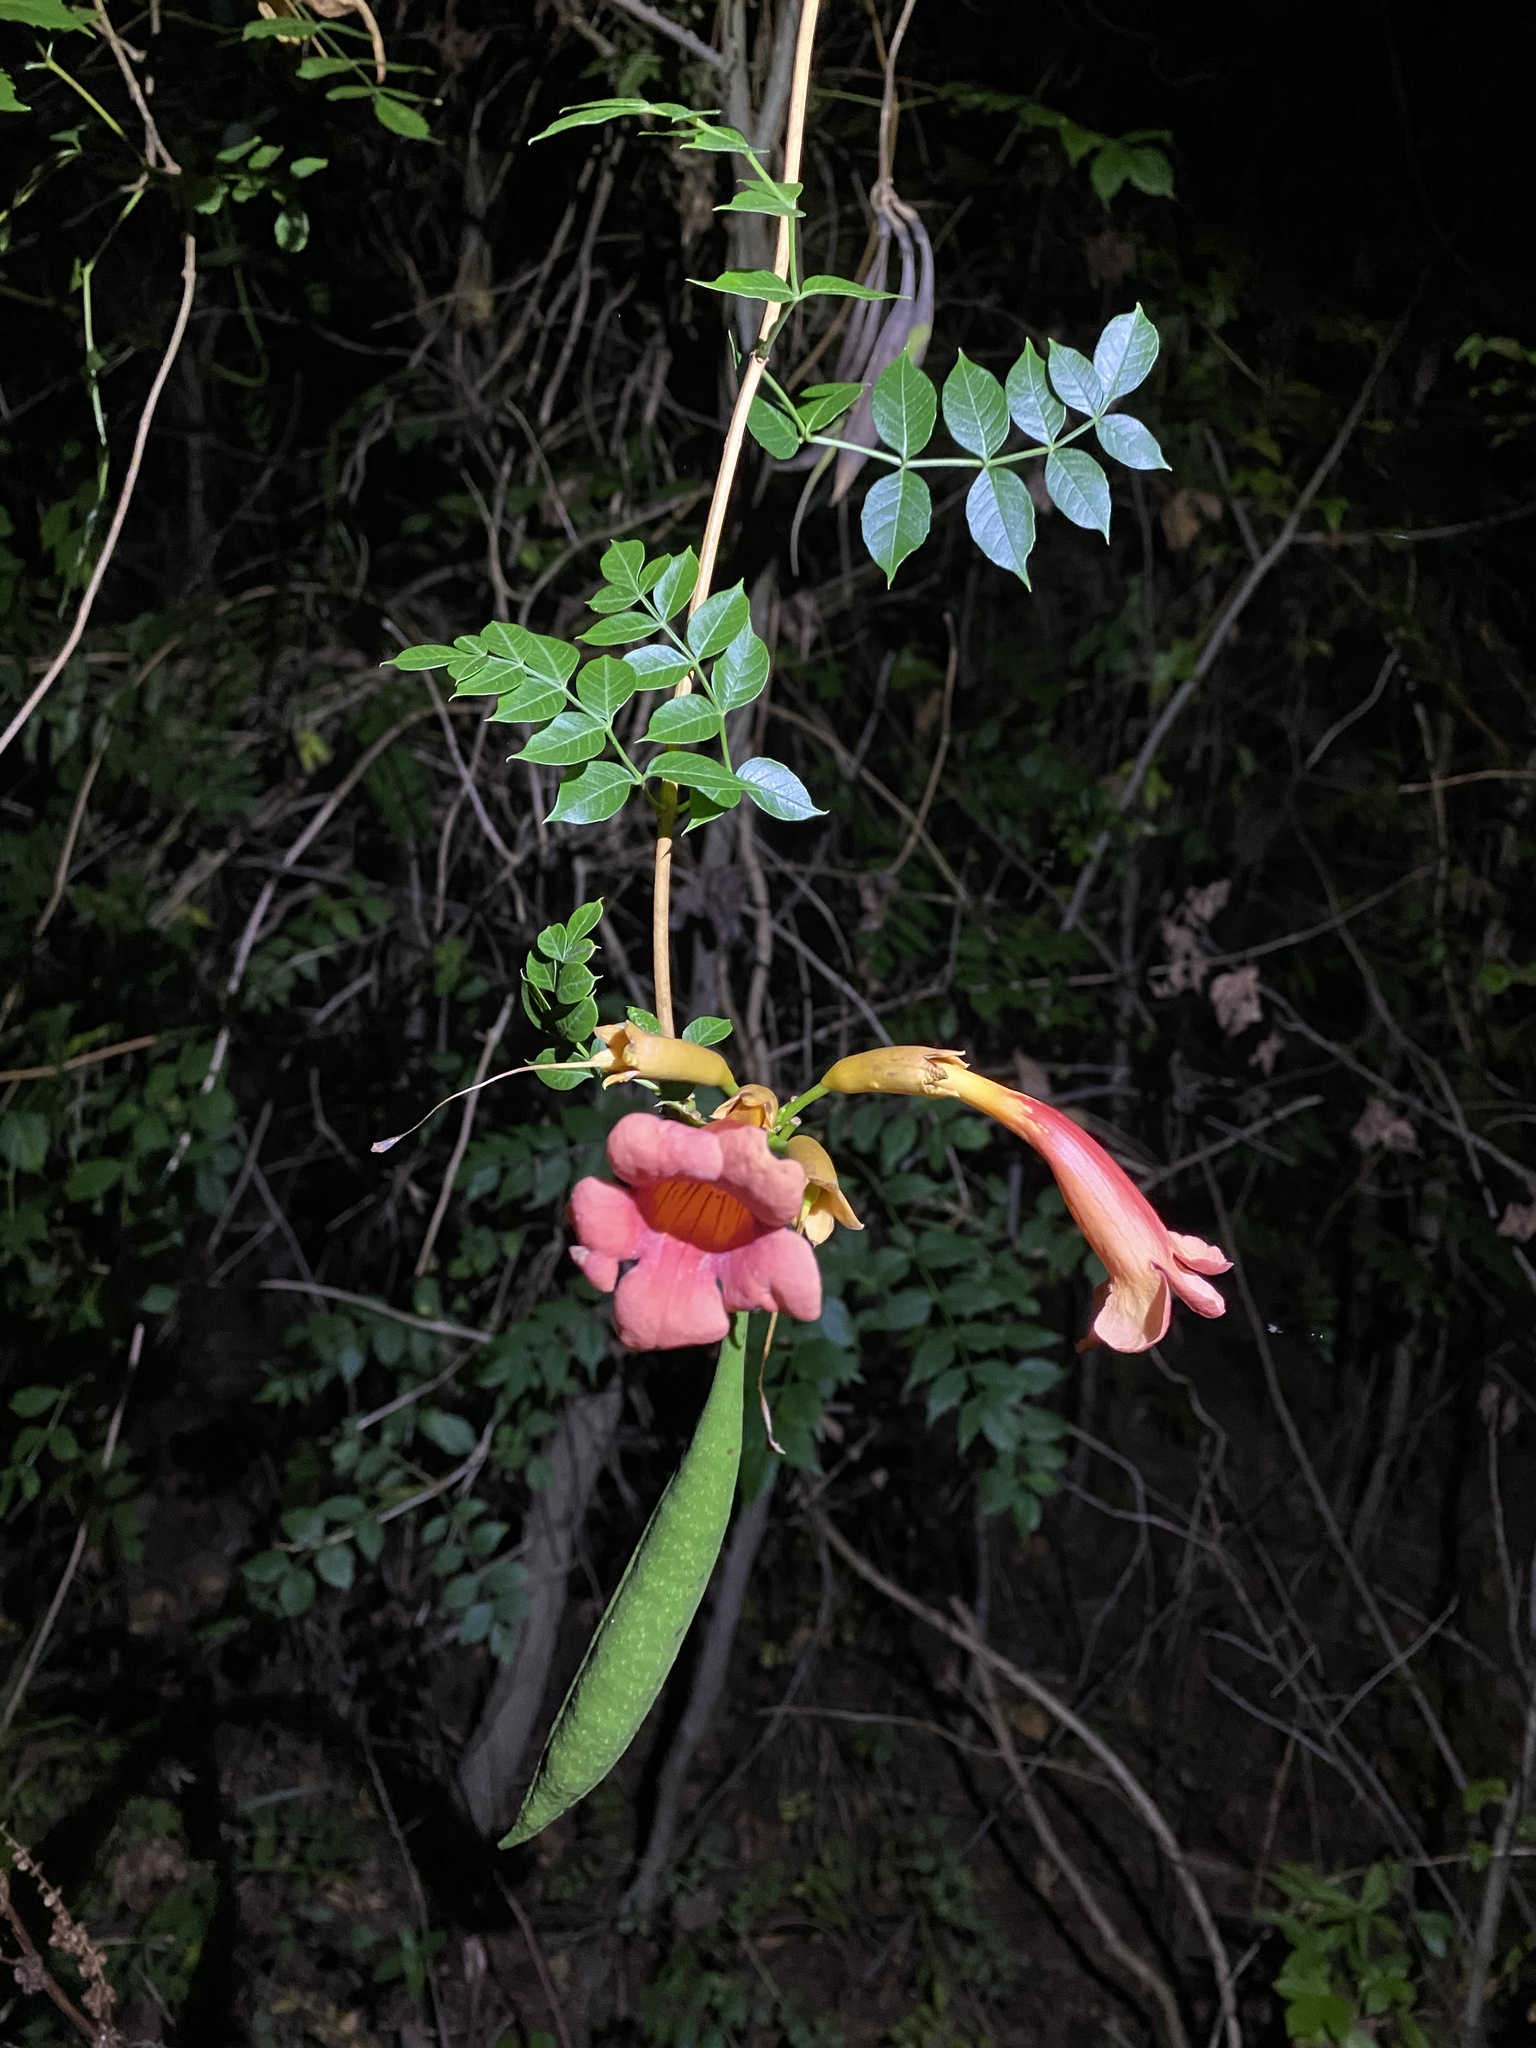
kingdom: Plantae
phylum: Tracheophyta
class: Magnoliopsida
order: Lamiales
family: Bignoniaceae
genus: Campsis
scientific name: Campsis radicans
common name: Trumpet-creeper
